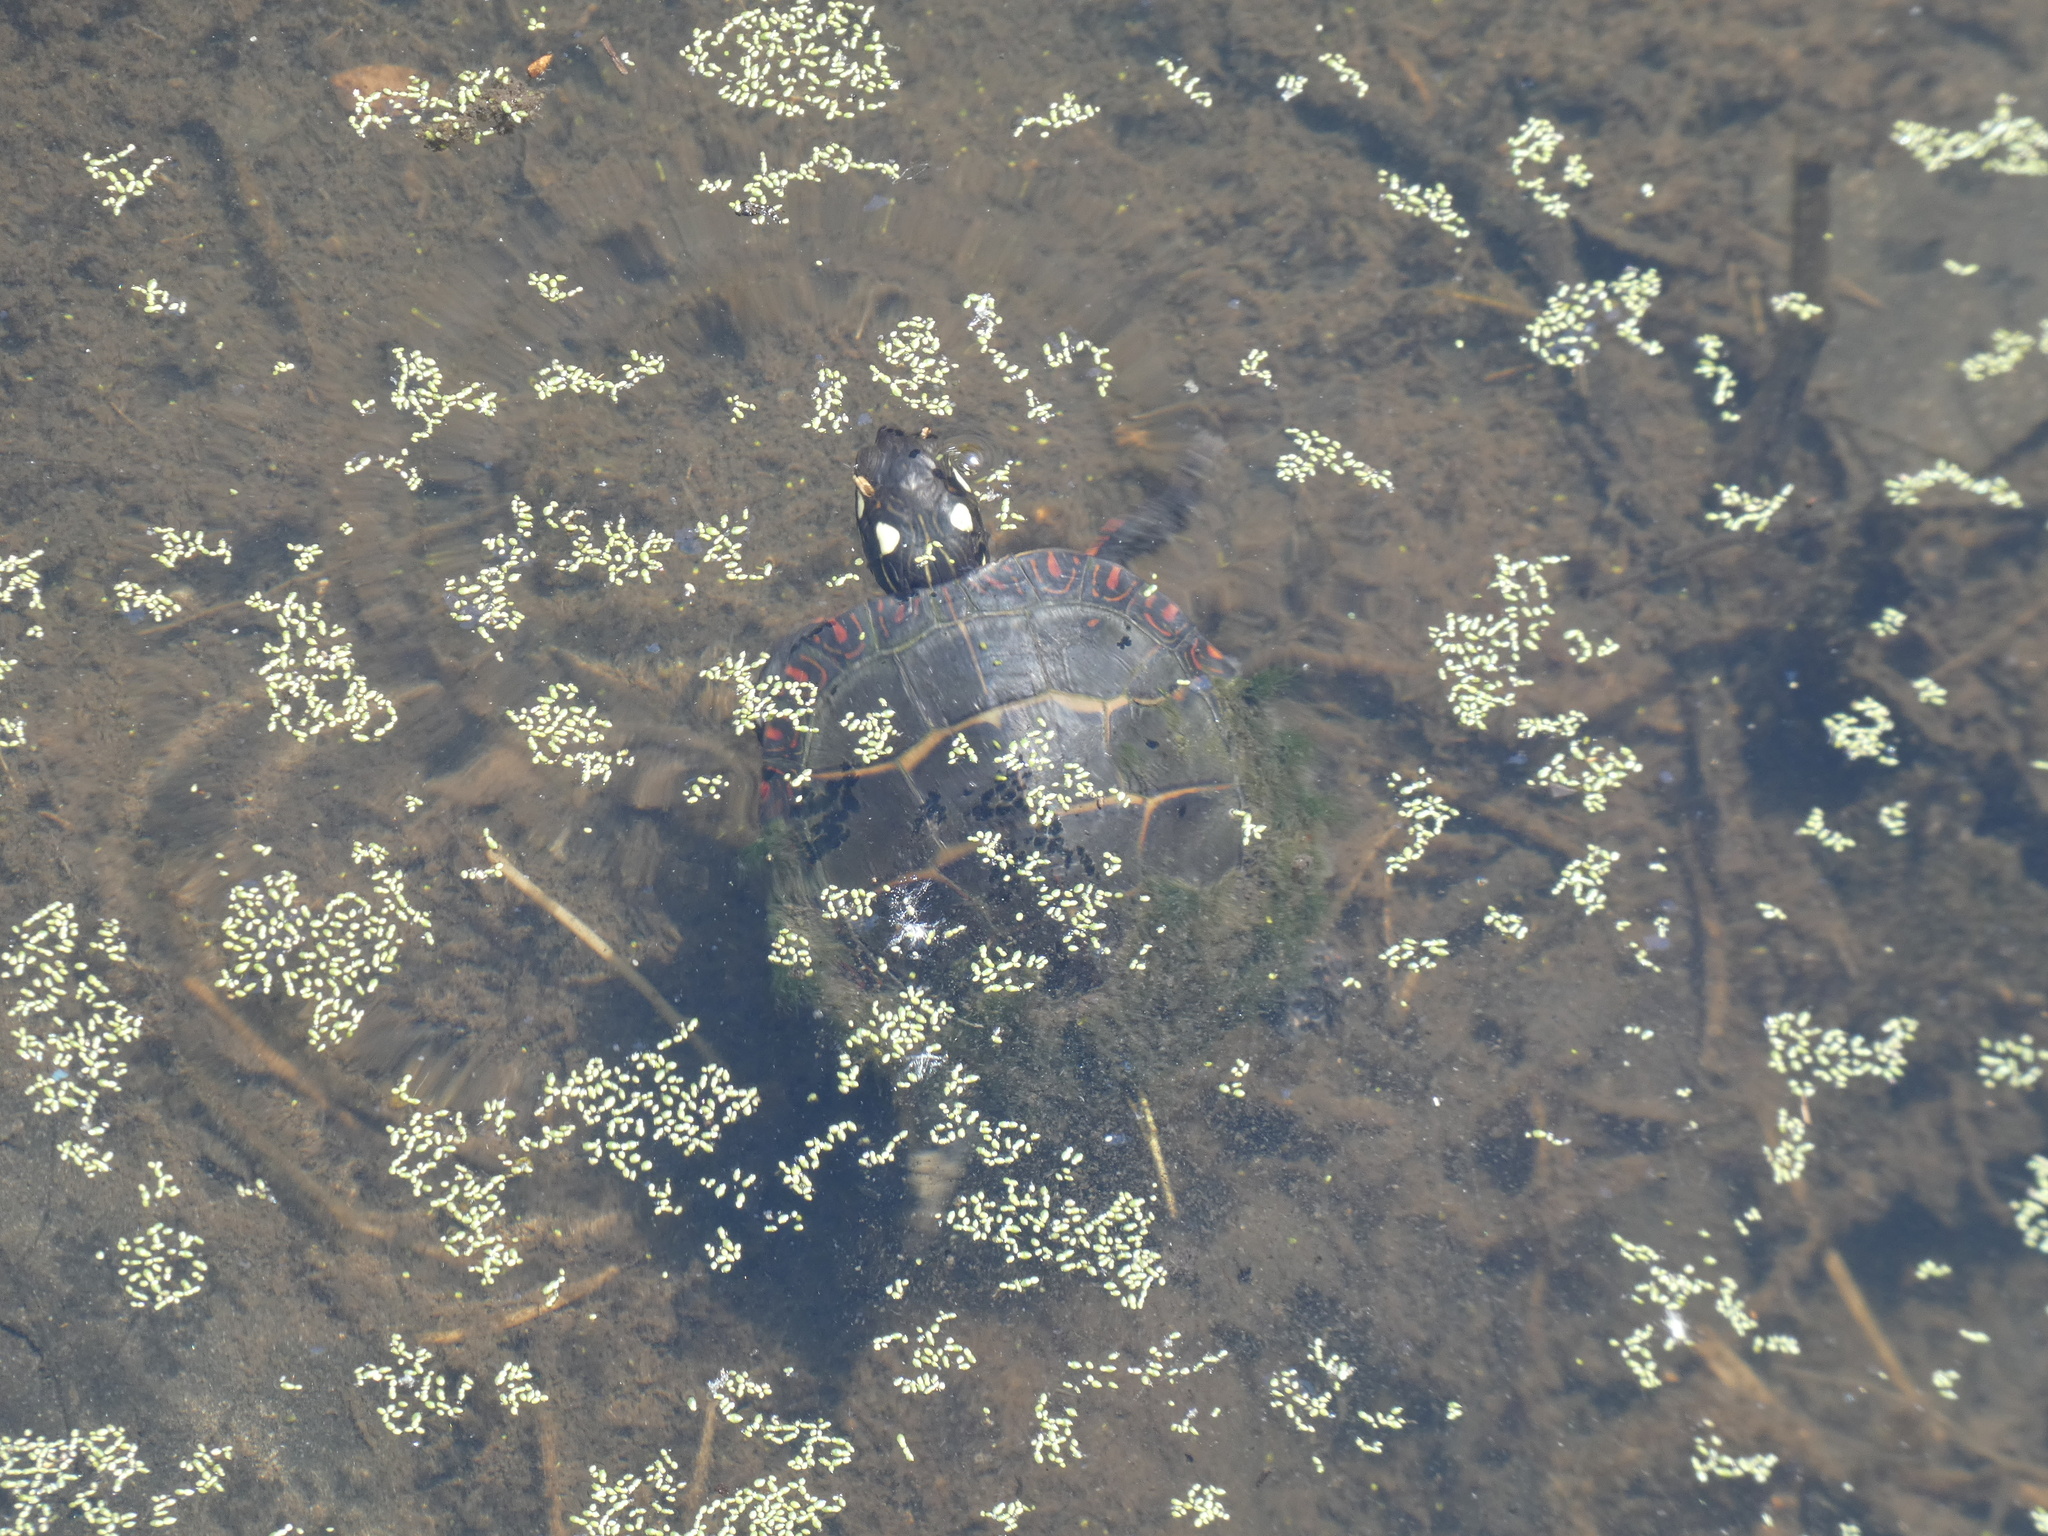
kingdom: Animalia
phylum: Chordata
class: Testudines
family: Emydidae
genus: Chrysemys
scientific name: Chrysemys picta
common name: Painted turtle
